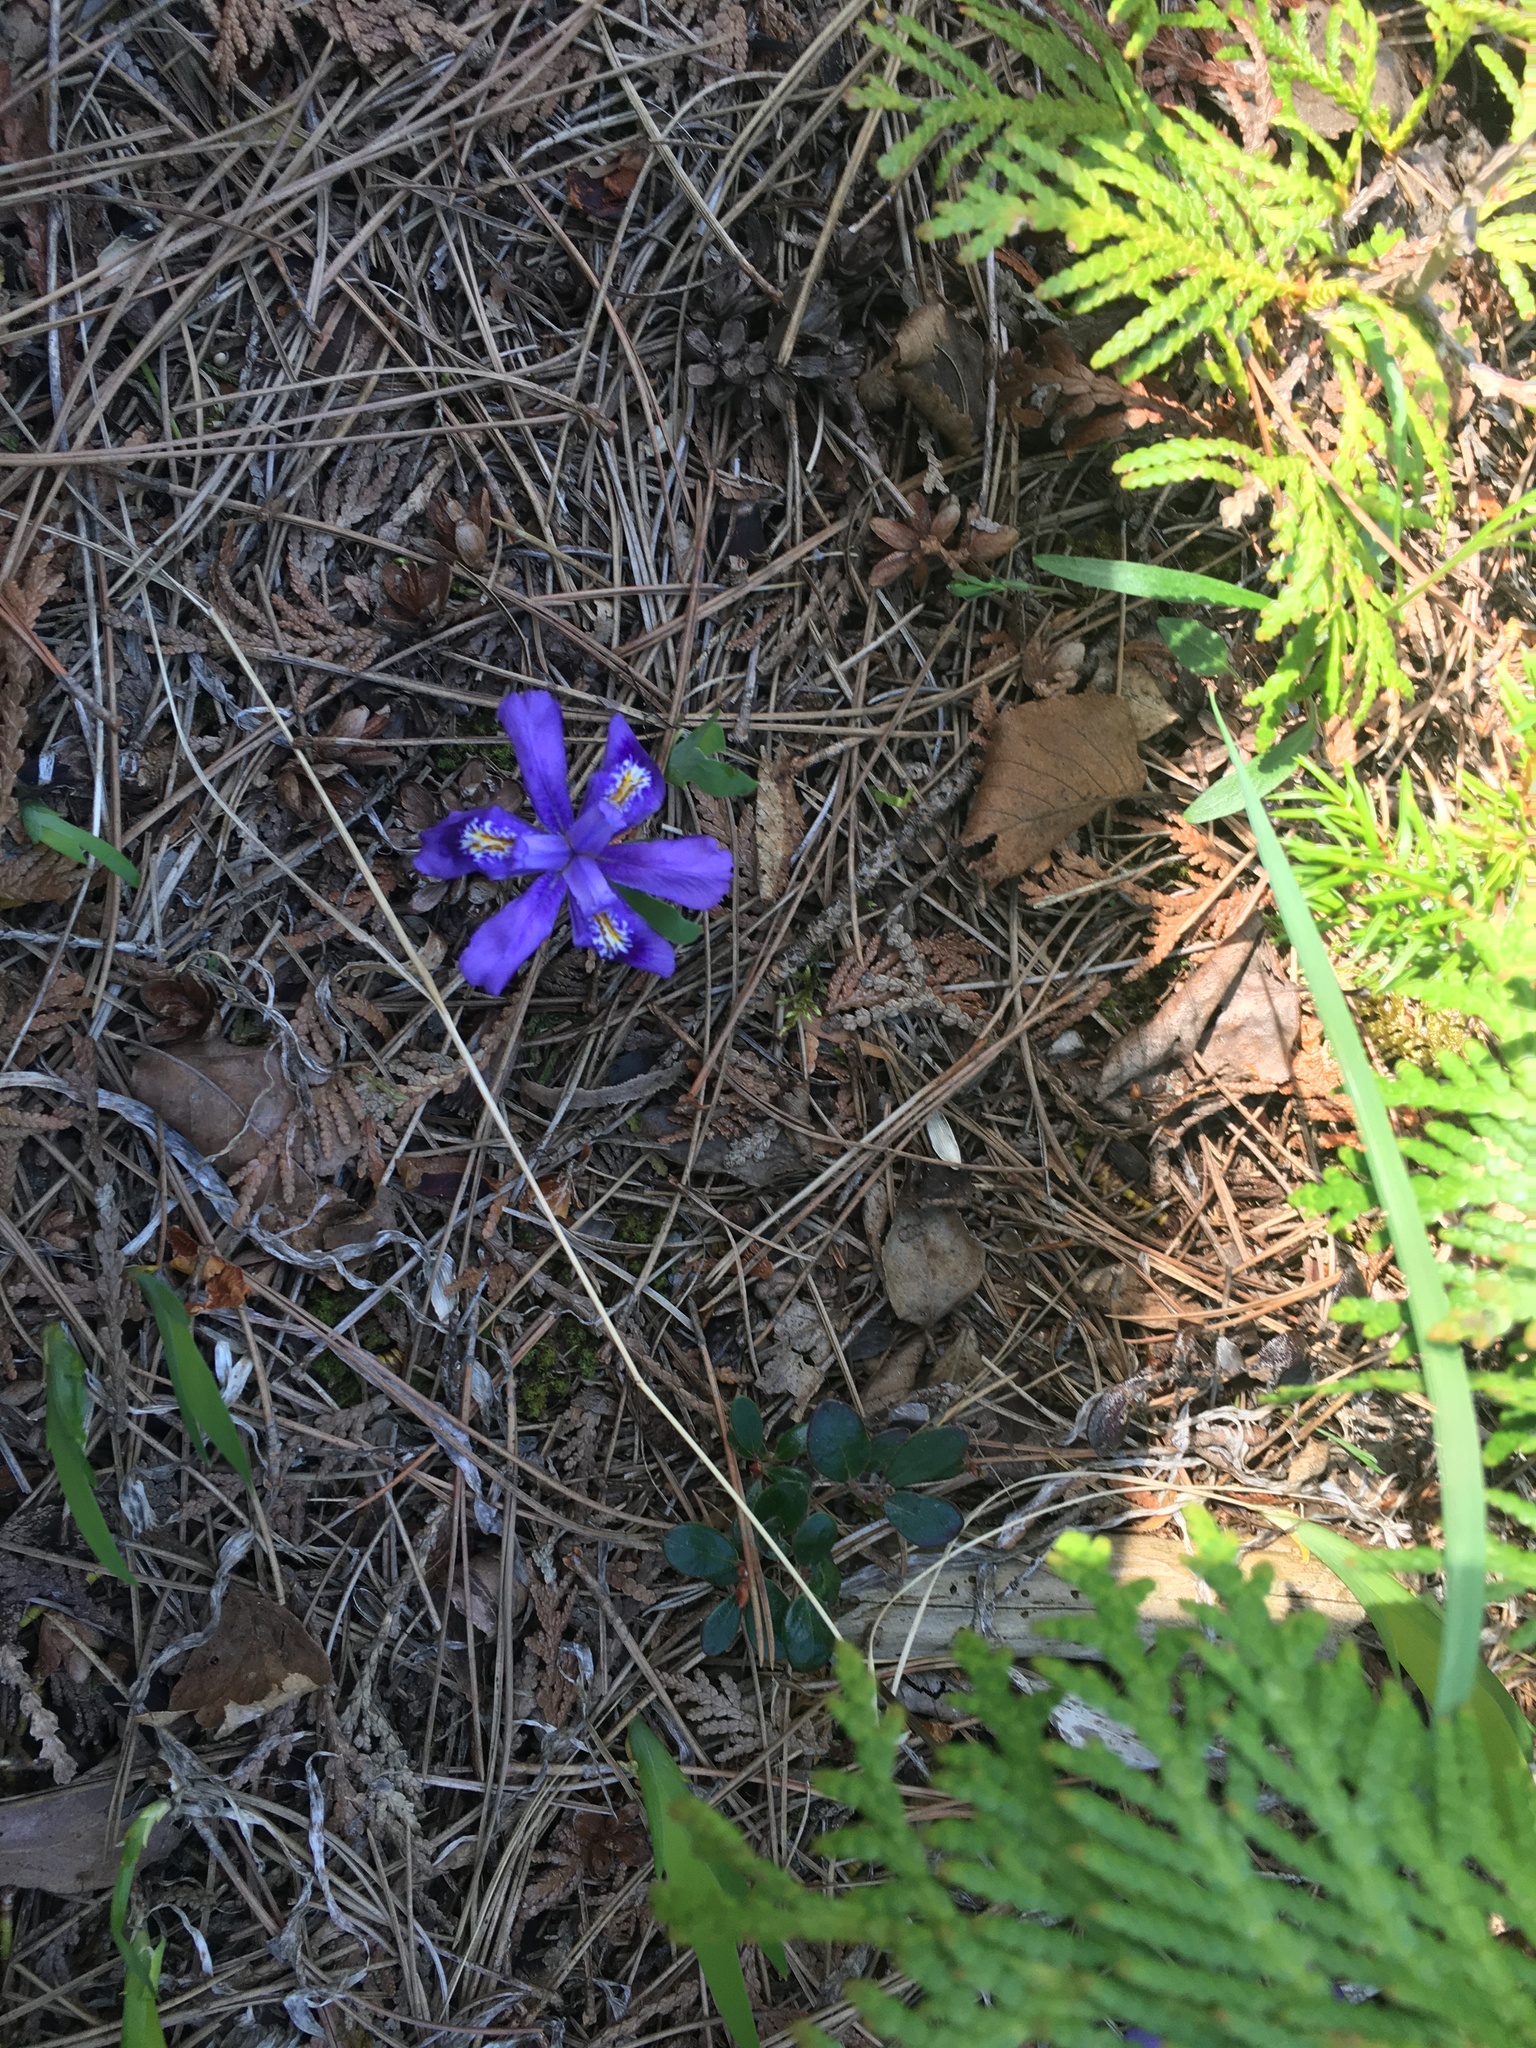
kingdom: Plantae
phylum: Tracheophyta
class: Liliopsida
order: Asparagales
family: Iridaceae
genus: Iris
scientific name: Iris lacustris
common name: Dwarf lake iris
